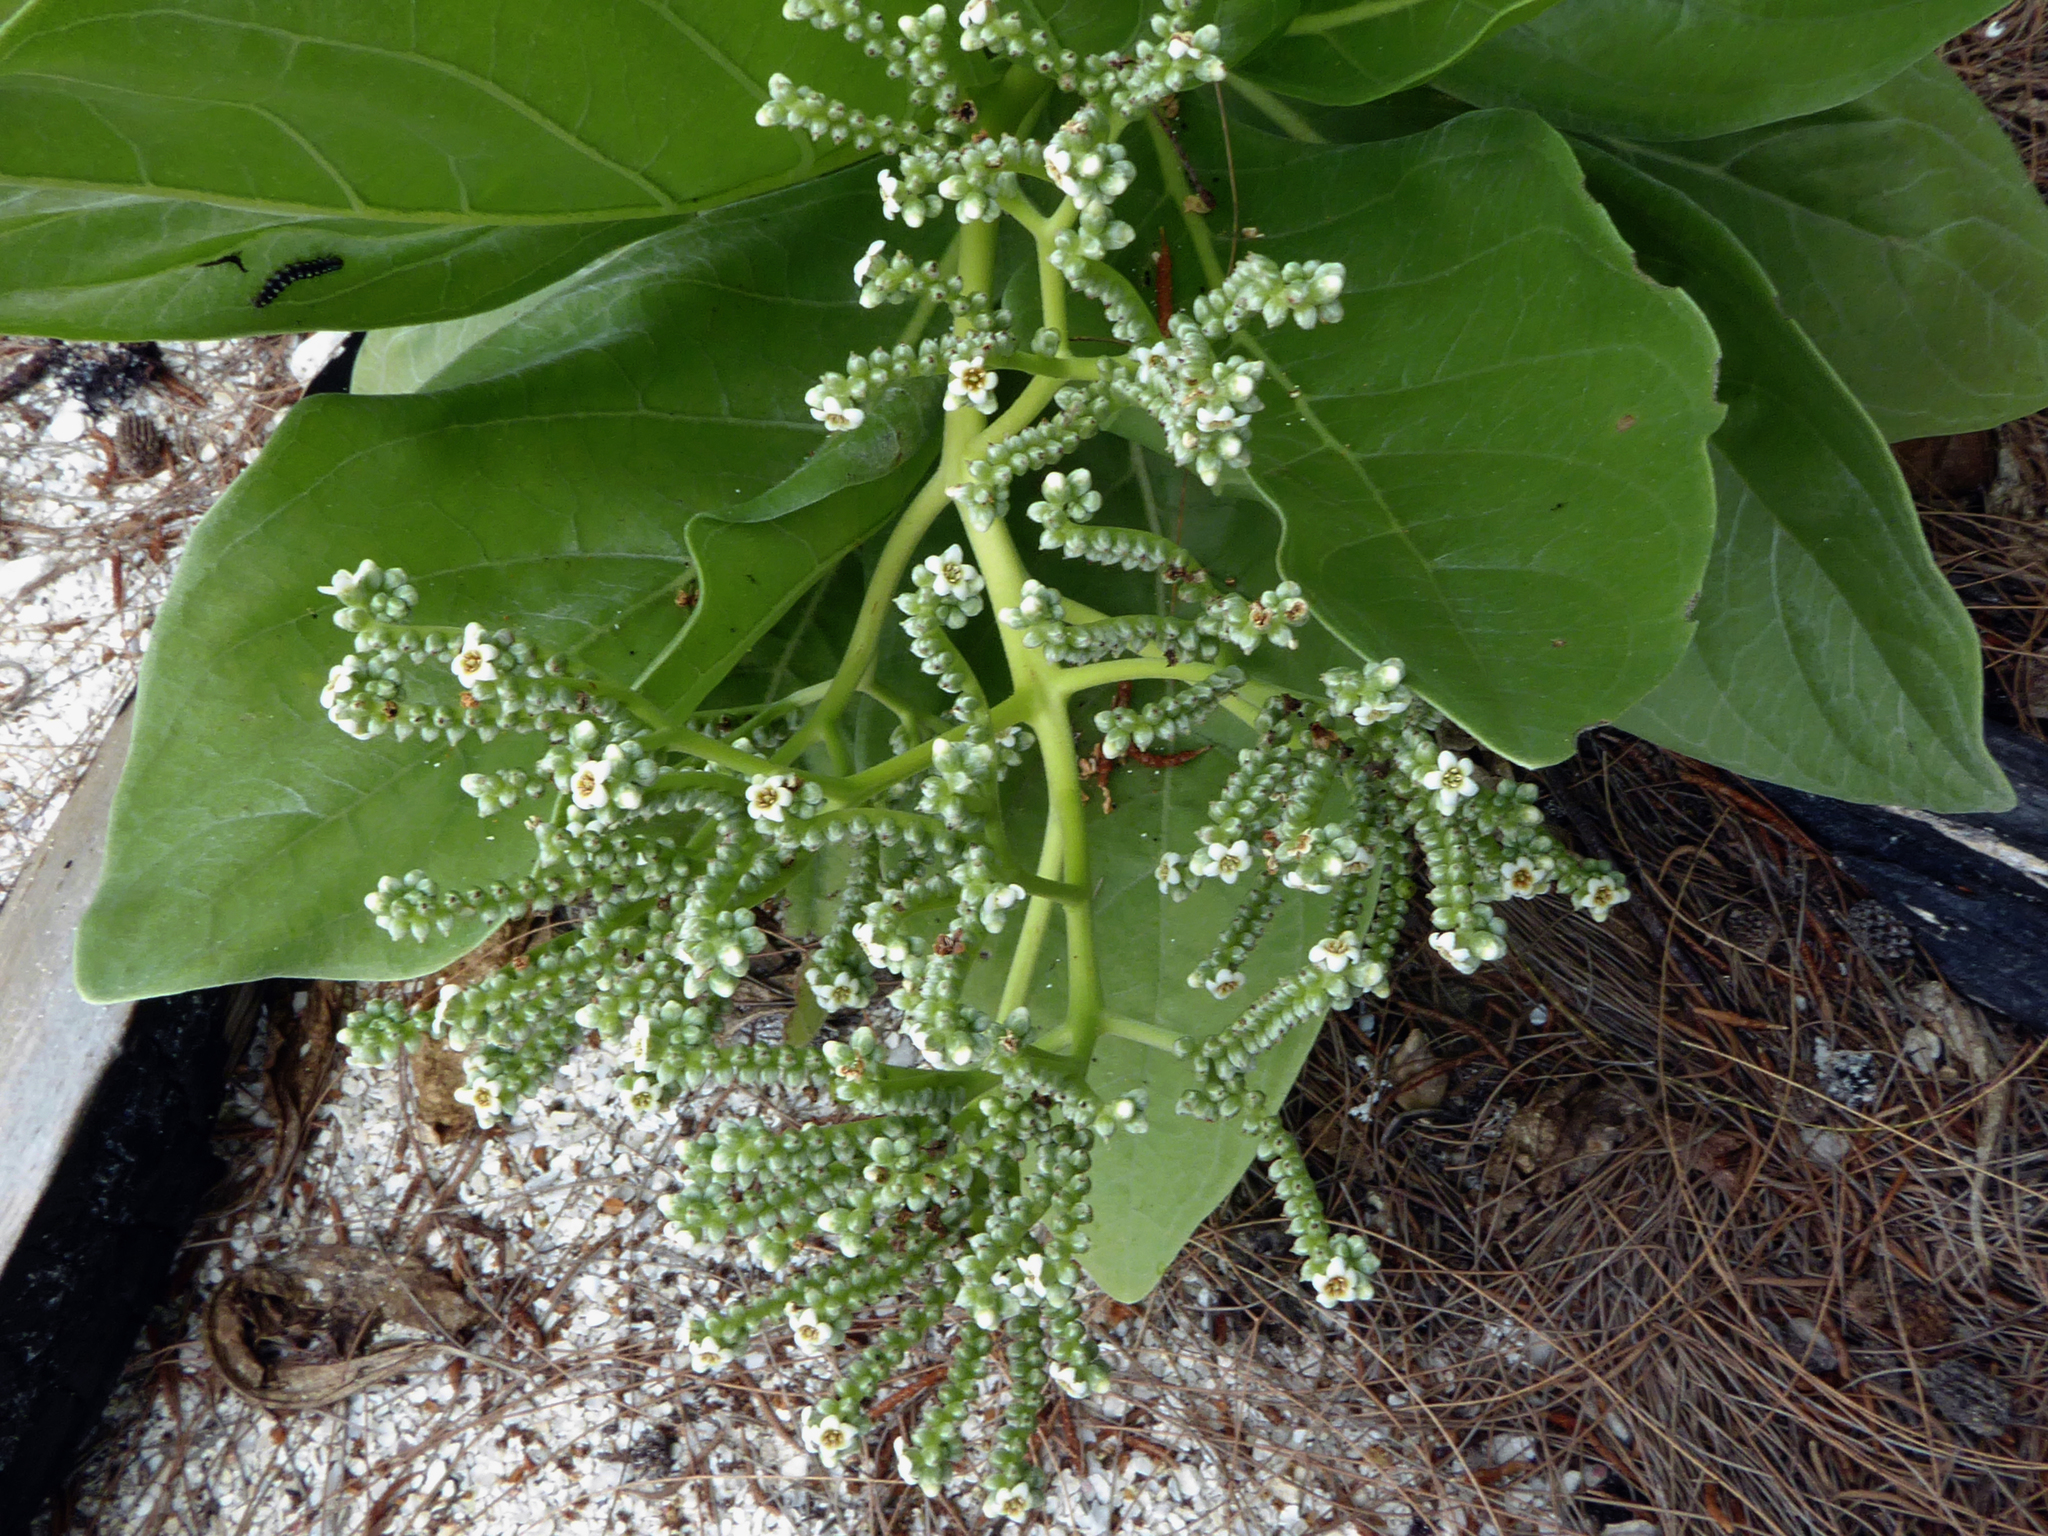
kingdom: Plantae
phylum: Tracheophyta
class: Magnoliopsida
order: Boraginales
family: Heliotropiaceae
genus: Heliotropium
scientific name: Heliotropium velutinum
